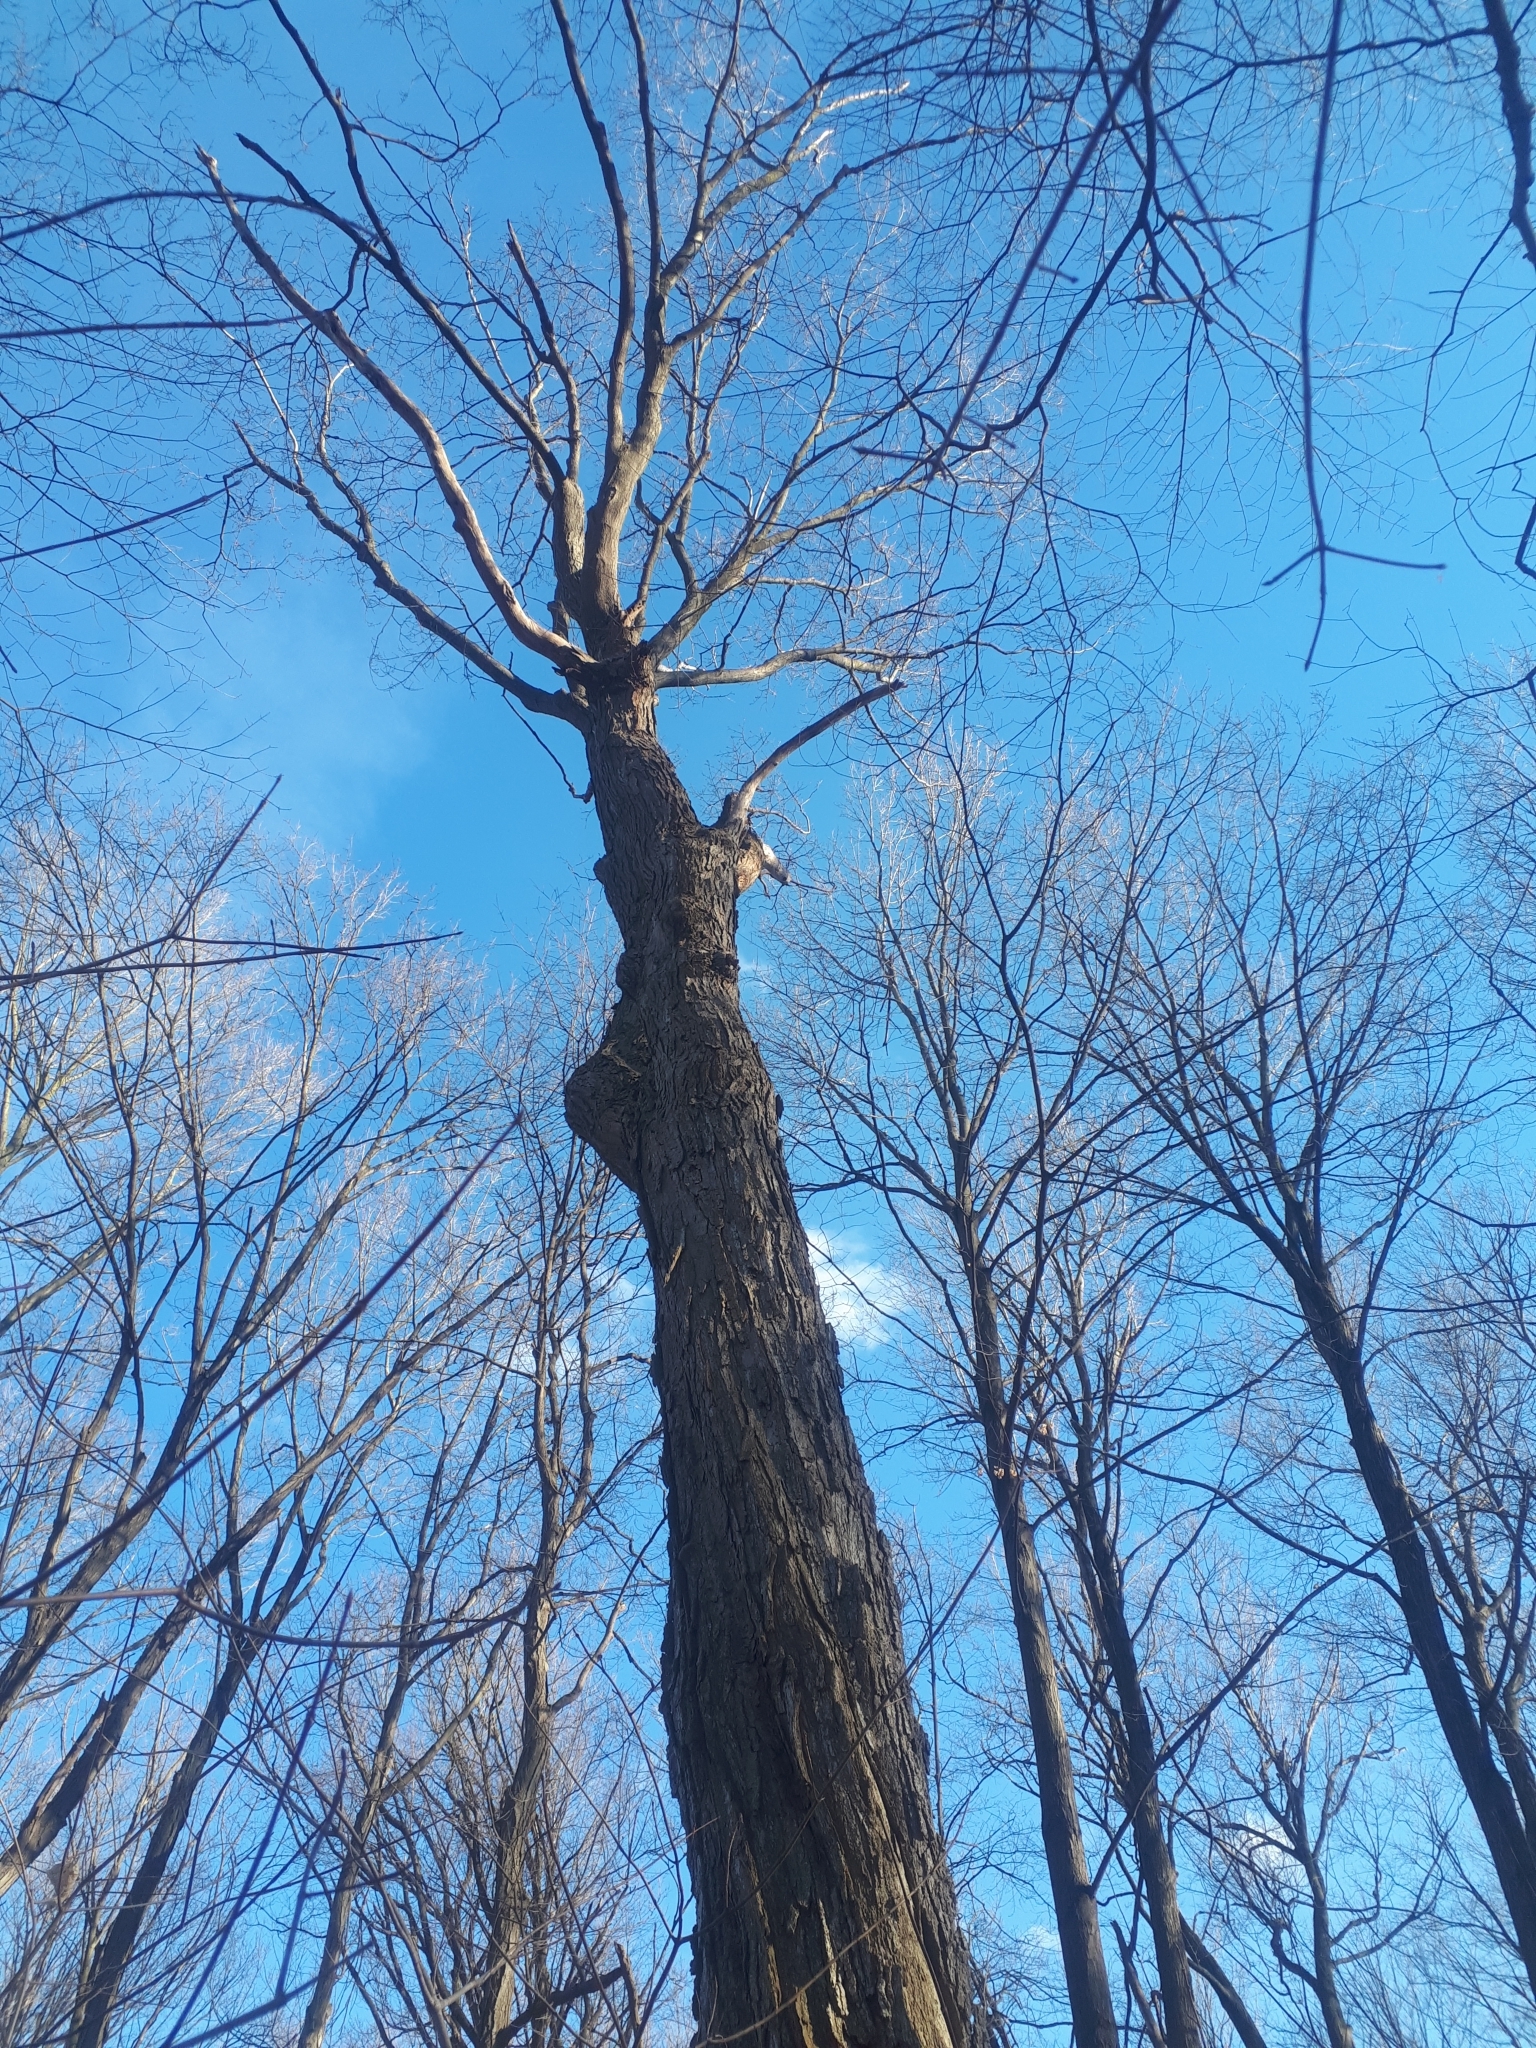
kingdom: Plantae
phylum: Tracheophyta
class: Magnoliopsida
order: Sapindales
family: Sapindaceae
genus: Acer
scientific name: Acer saccharum
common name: Sugar maple
